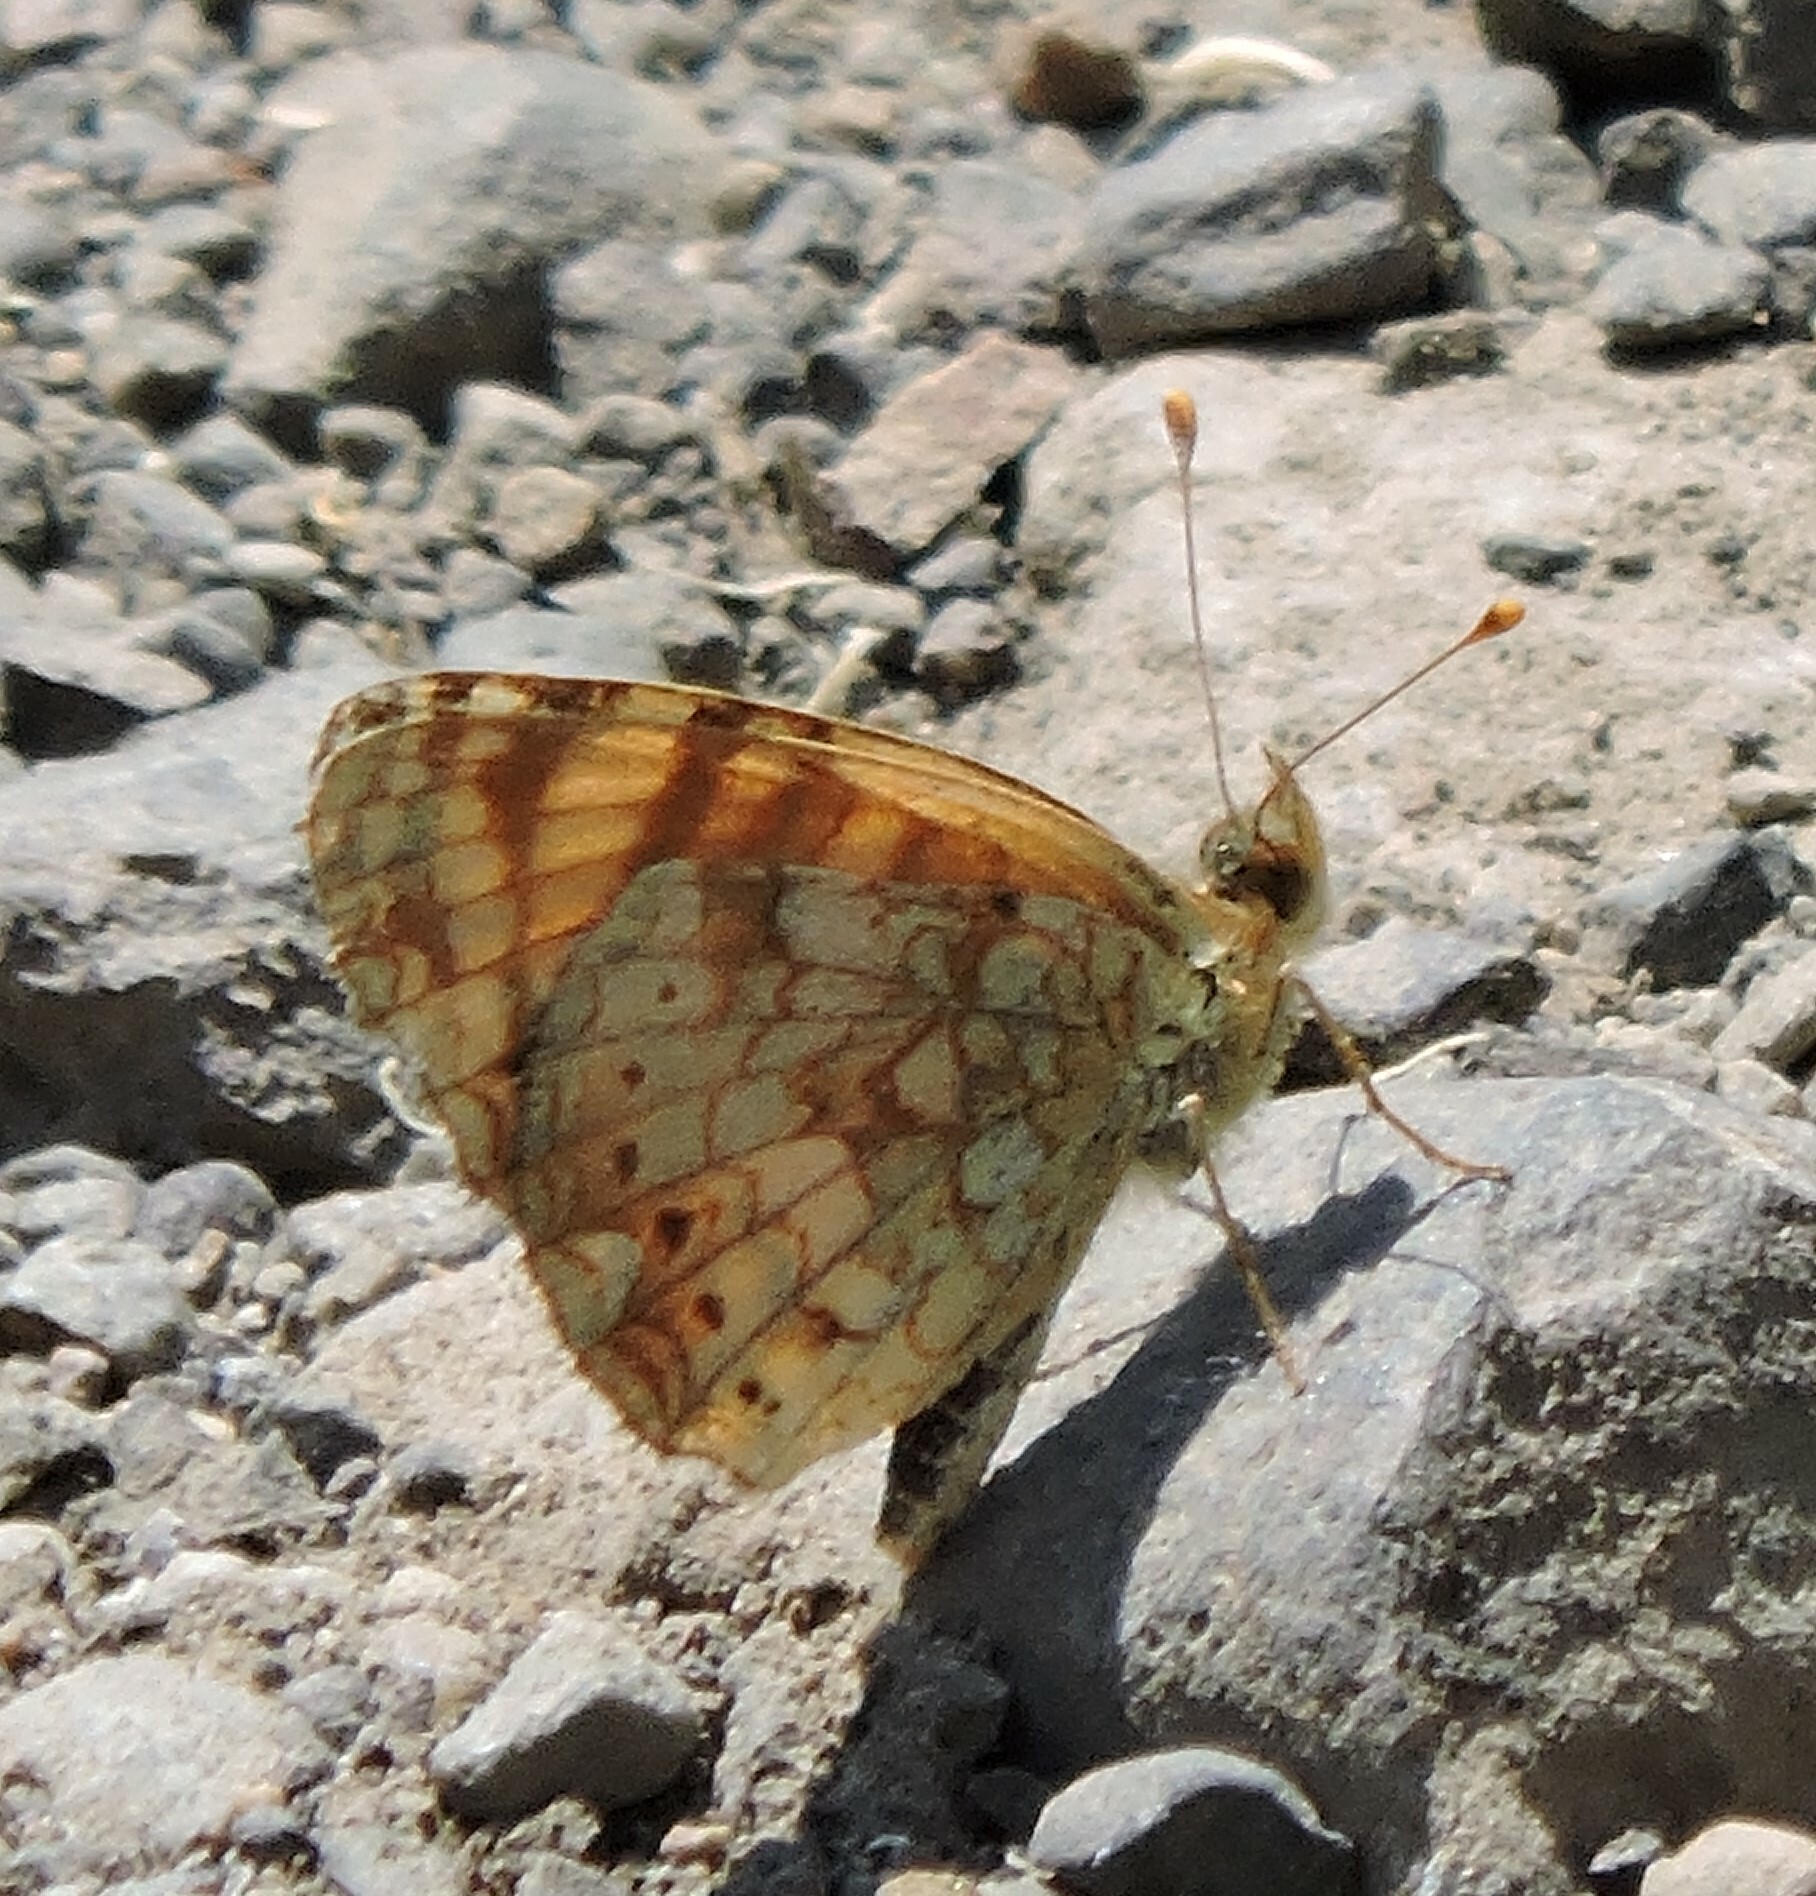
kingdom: Animalia
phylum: Arthropoda
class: Insecta
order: Lepidoptera
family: Nymphalidae
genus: Eresia
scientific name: Eresia aveyrona
